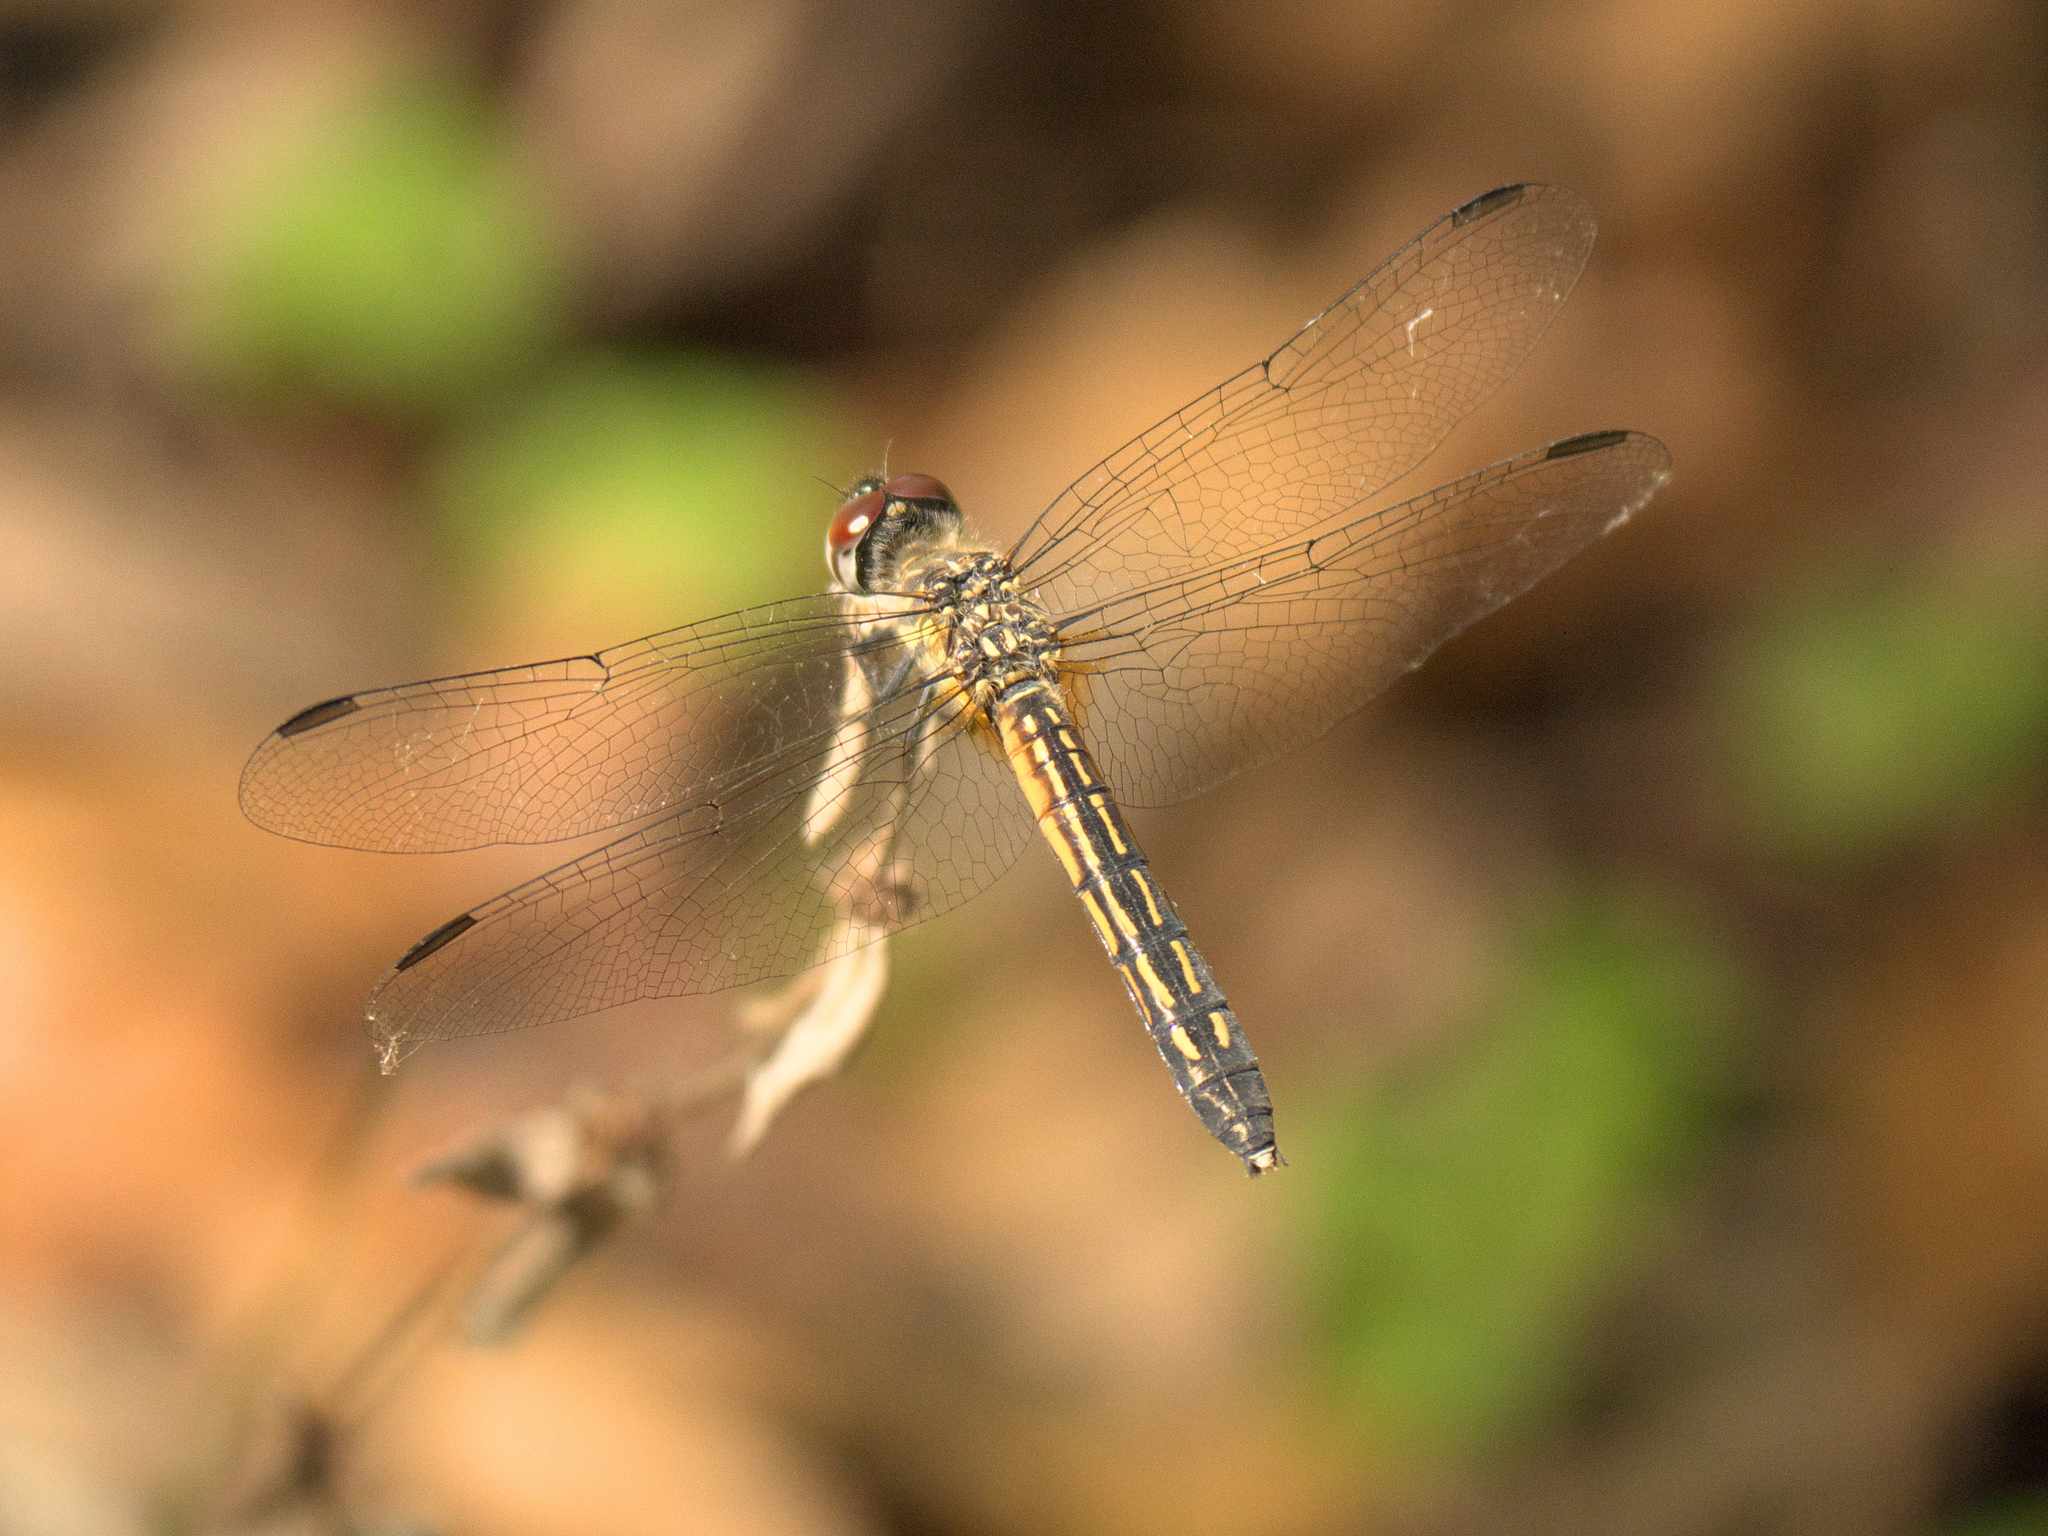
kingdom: Animalia
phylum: Arthropoda
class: Insecta
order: Odonata
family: Libellulidae
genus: Pachydiplax
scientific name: Pachydiplax longipennis
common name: Blue dasher
